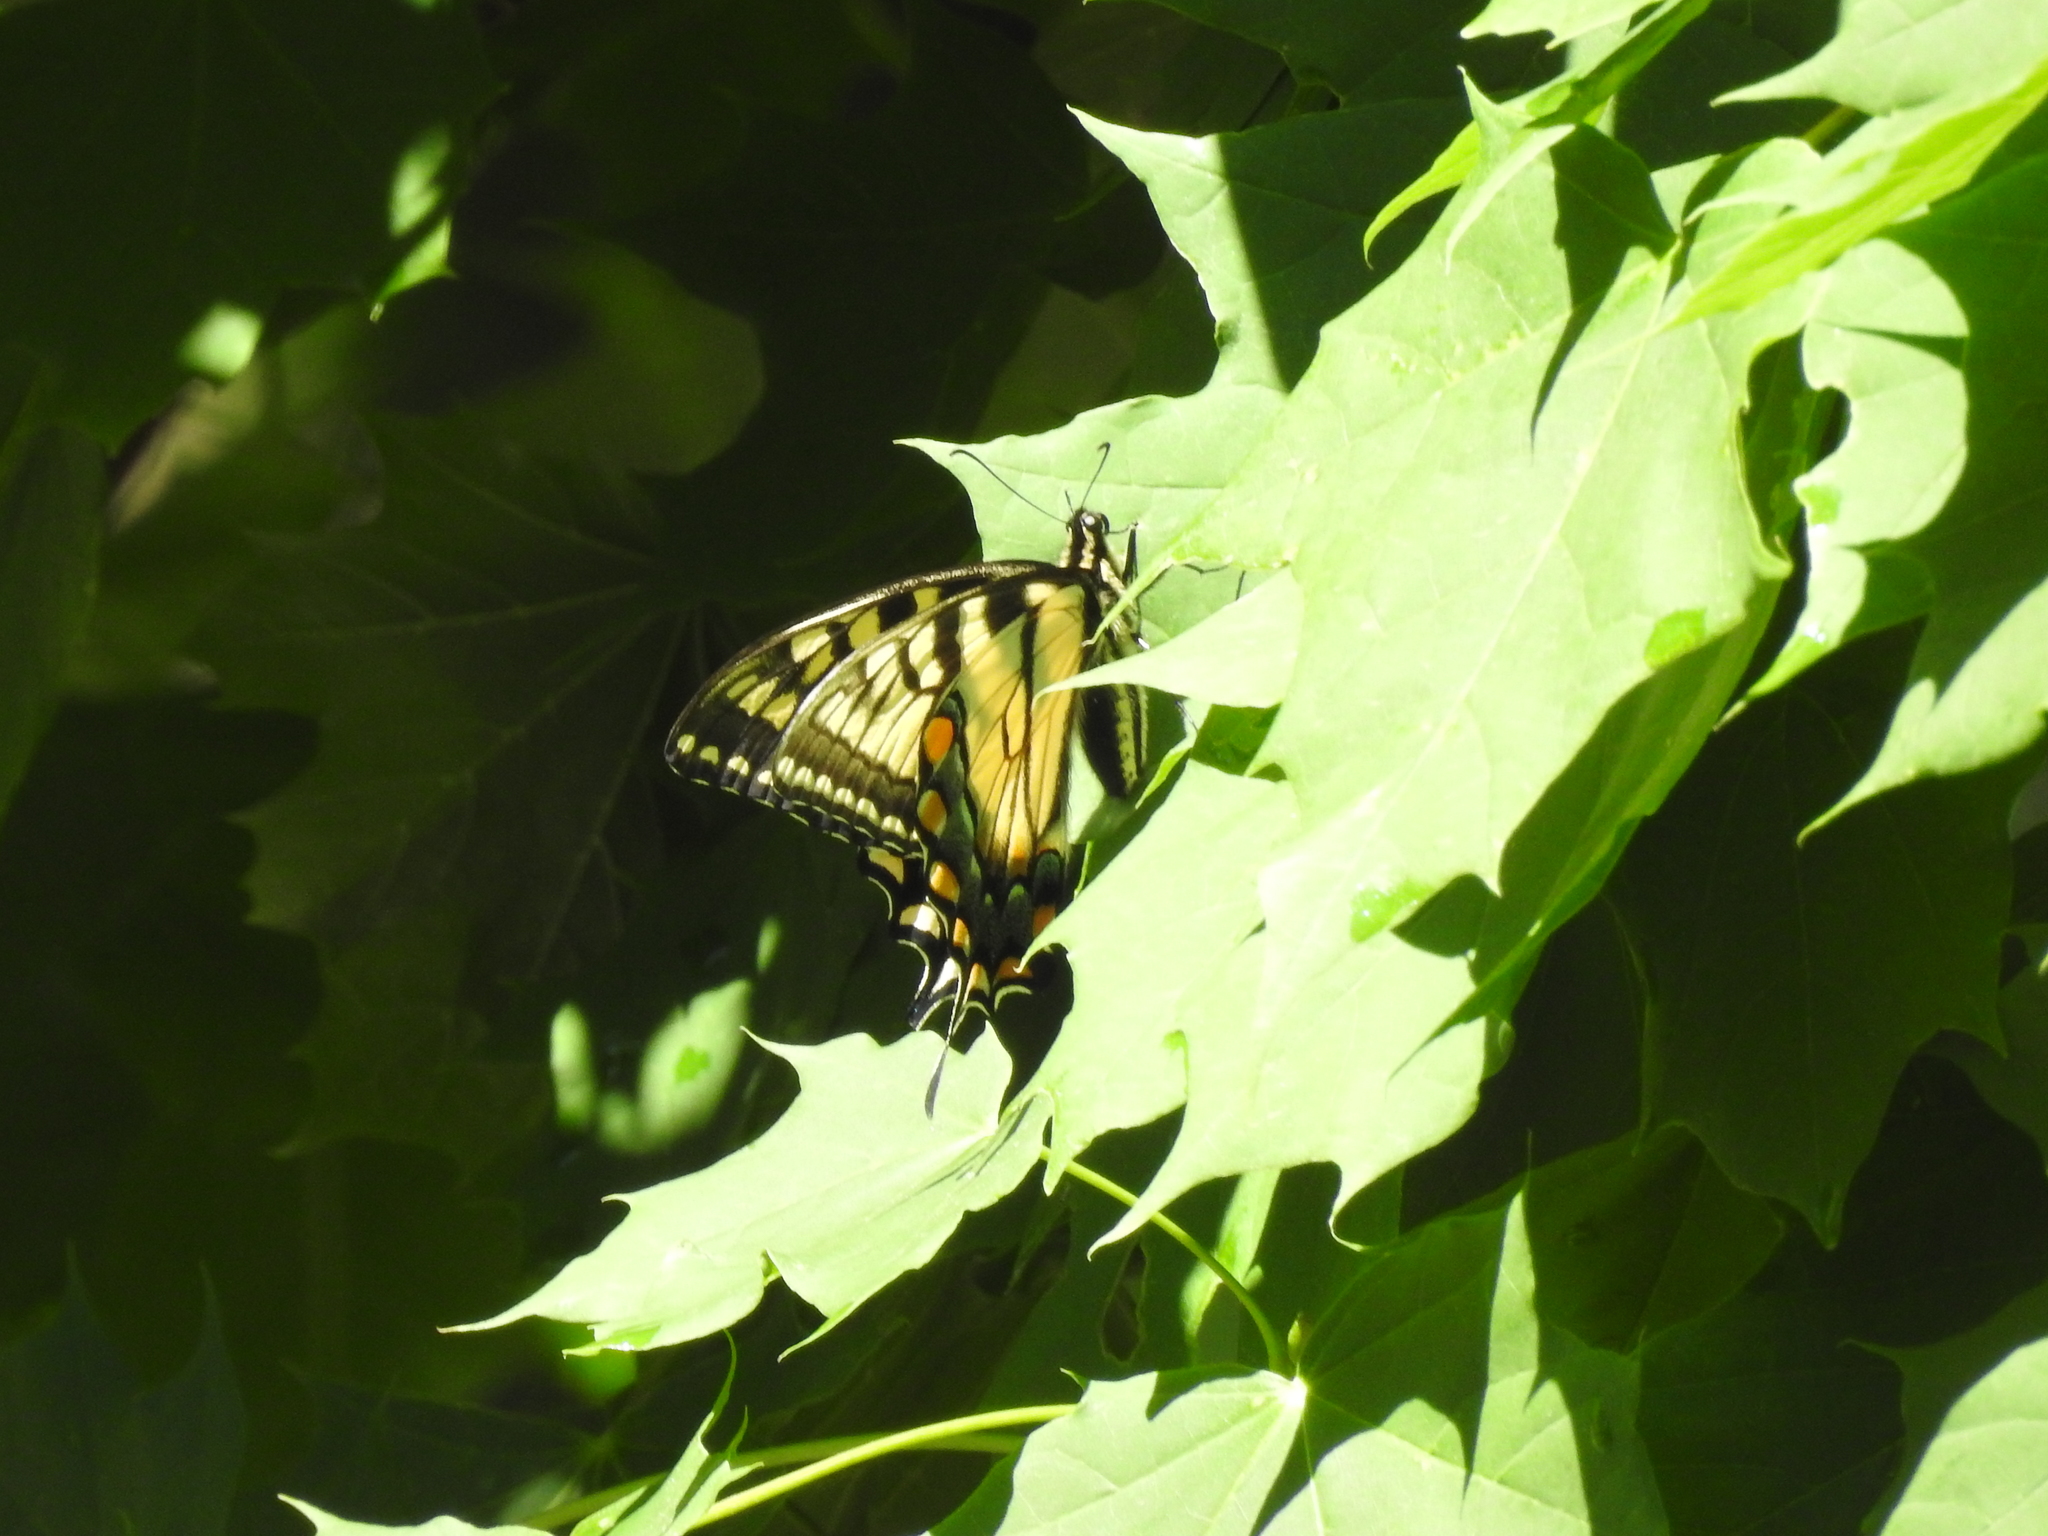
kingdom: Animalia
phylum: Arthropoda
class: Insecta
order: Lepidoptera
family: Papilionidae
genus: Papilio
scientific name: Papilio glaucus
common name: Tiger swallowtail
